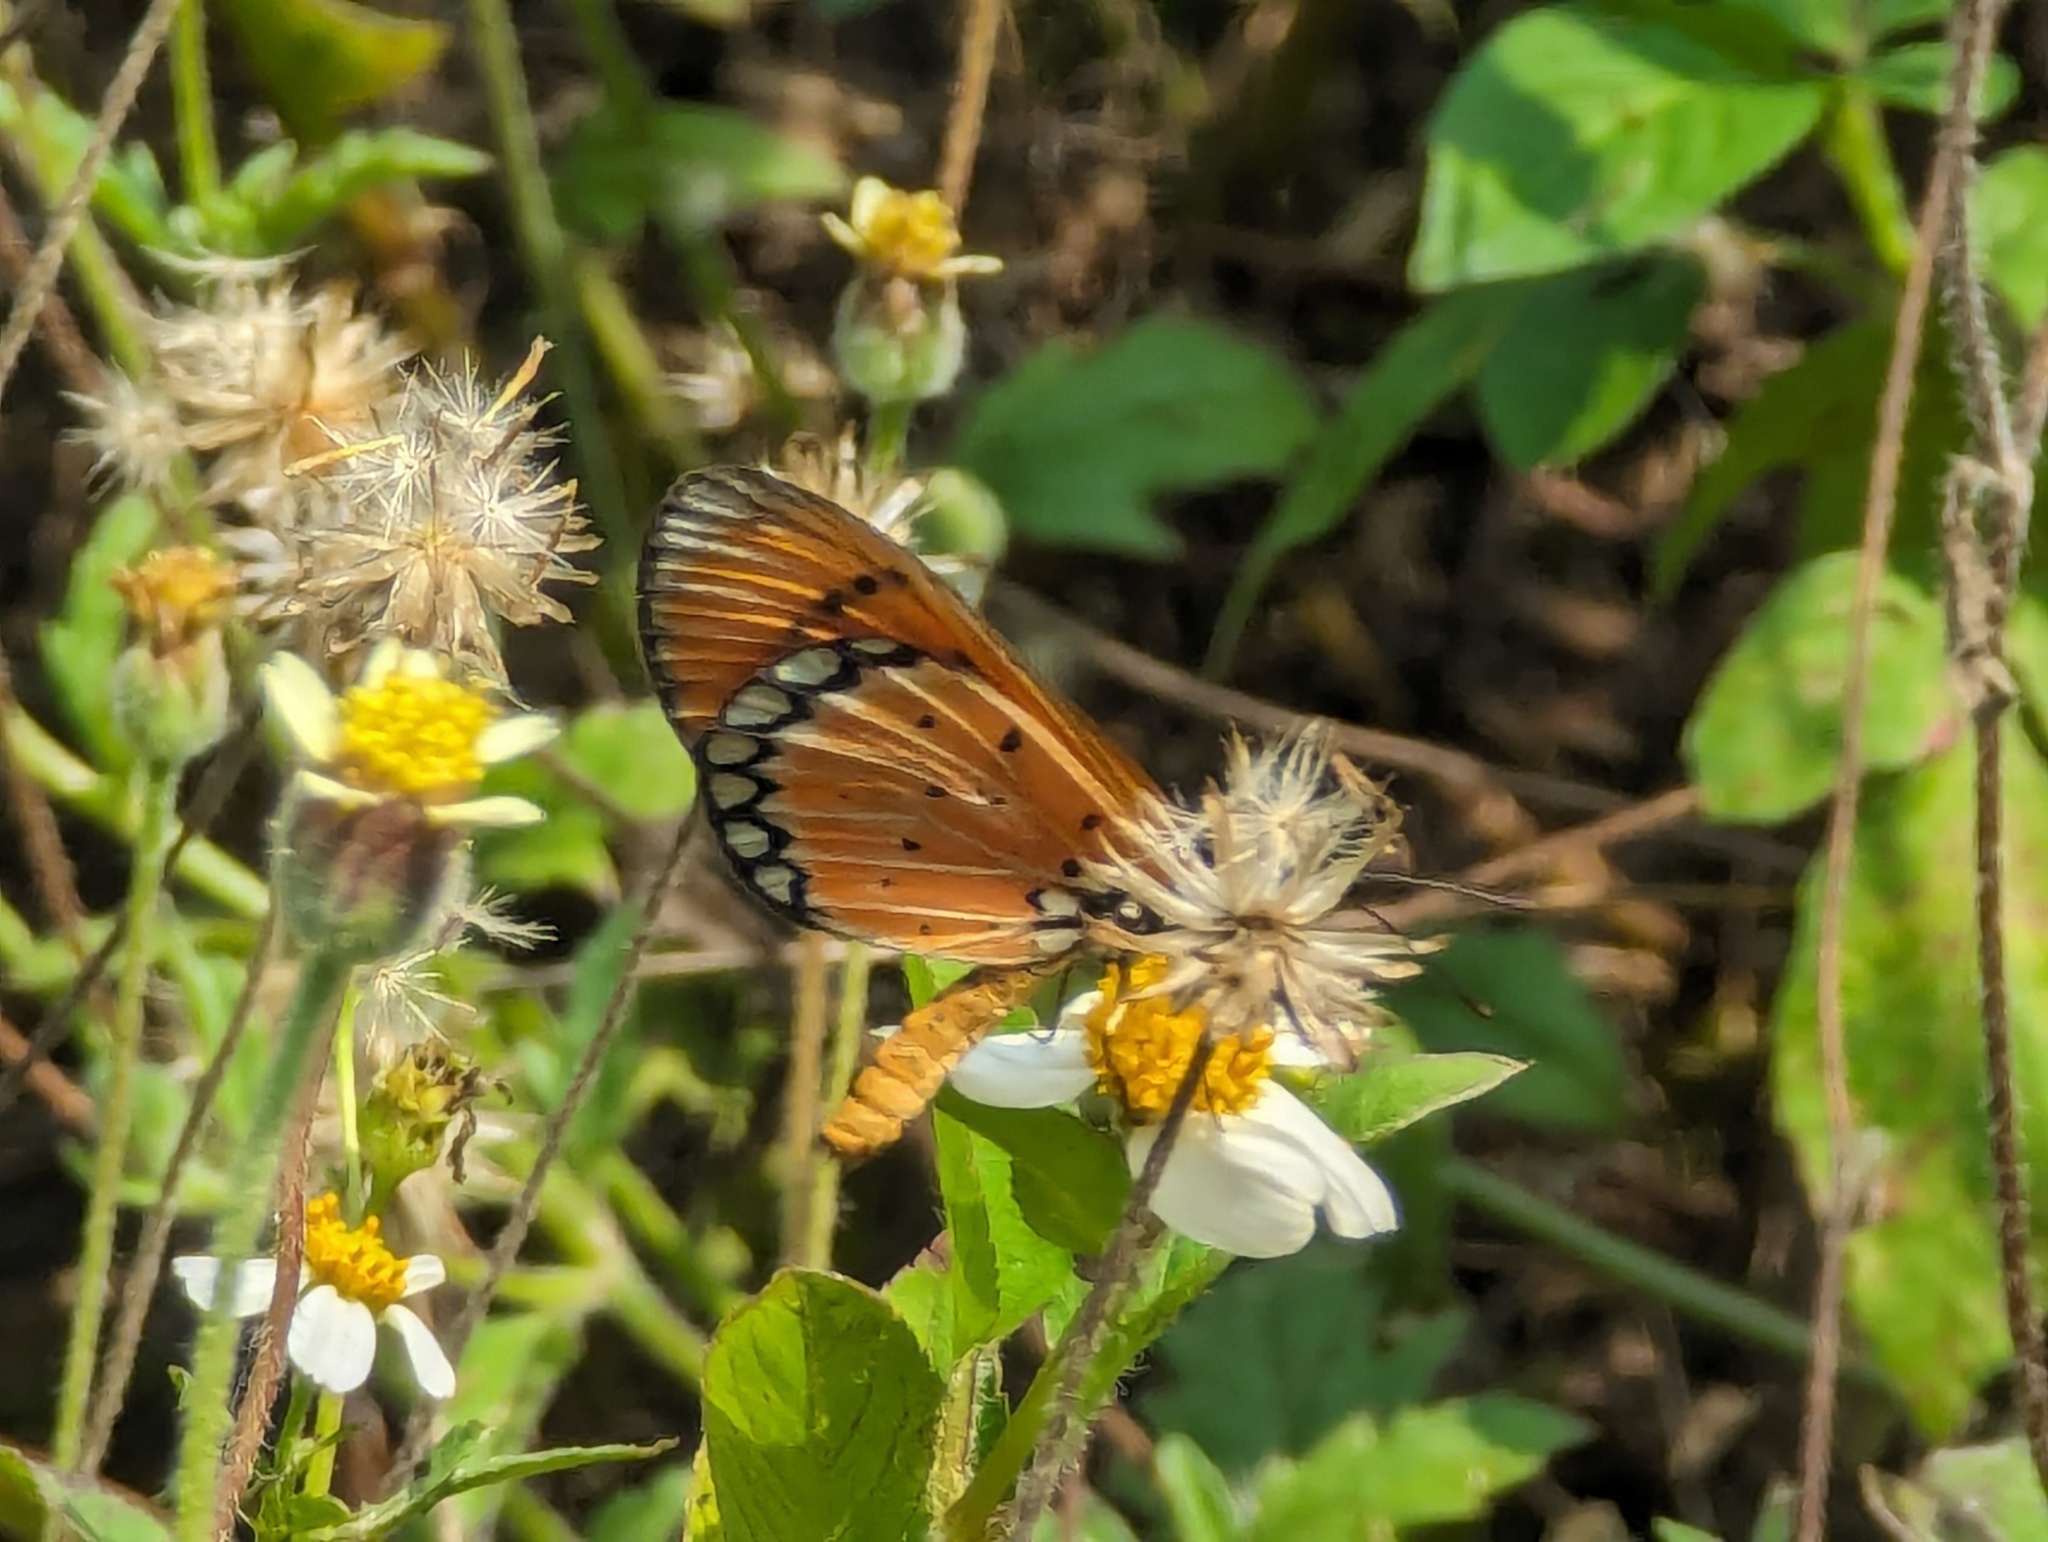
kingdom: Animalia
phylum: Arthropoda
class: Insecta
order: Lepidoptera
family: Nymphalidae
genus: Acraea
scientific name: Acraea terpsicore
